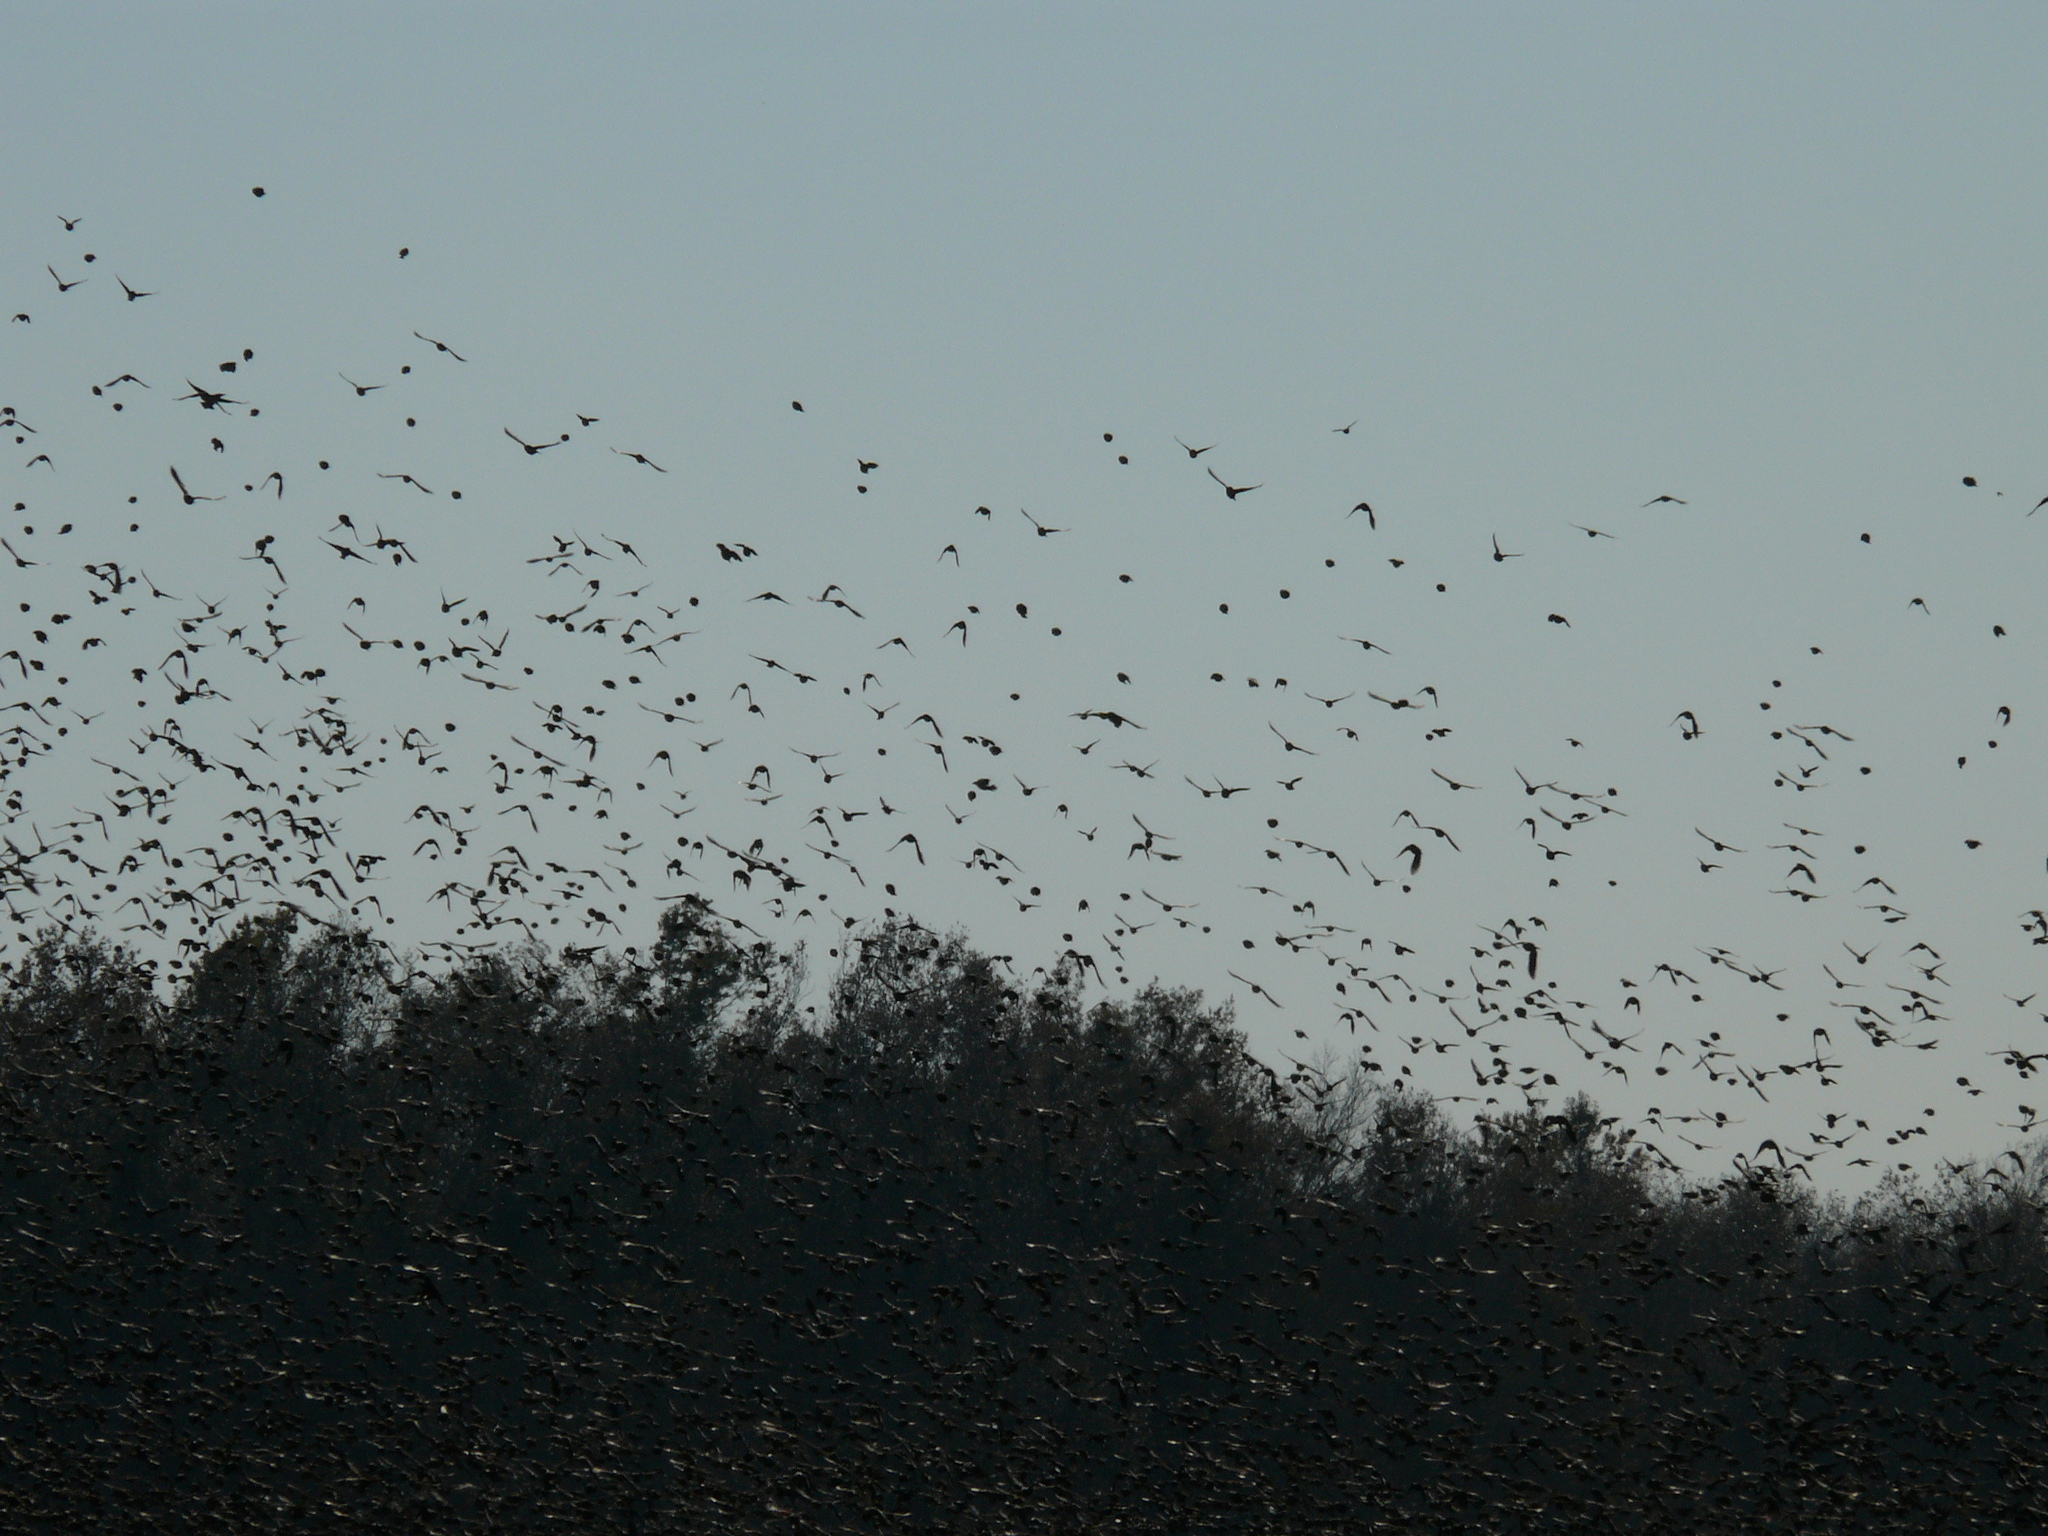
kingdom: Animalia
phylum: Chordata
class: Aves
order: Passeriformes
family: Icteridae
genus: Agelaius
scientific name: Agelaius phoeniceus
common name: Red-winged blackbird
